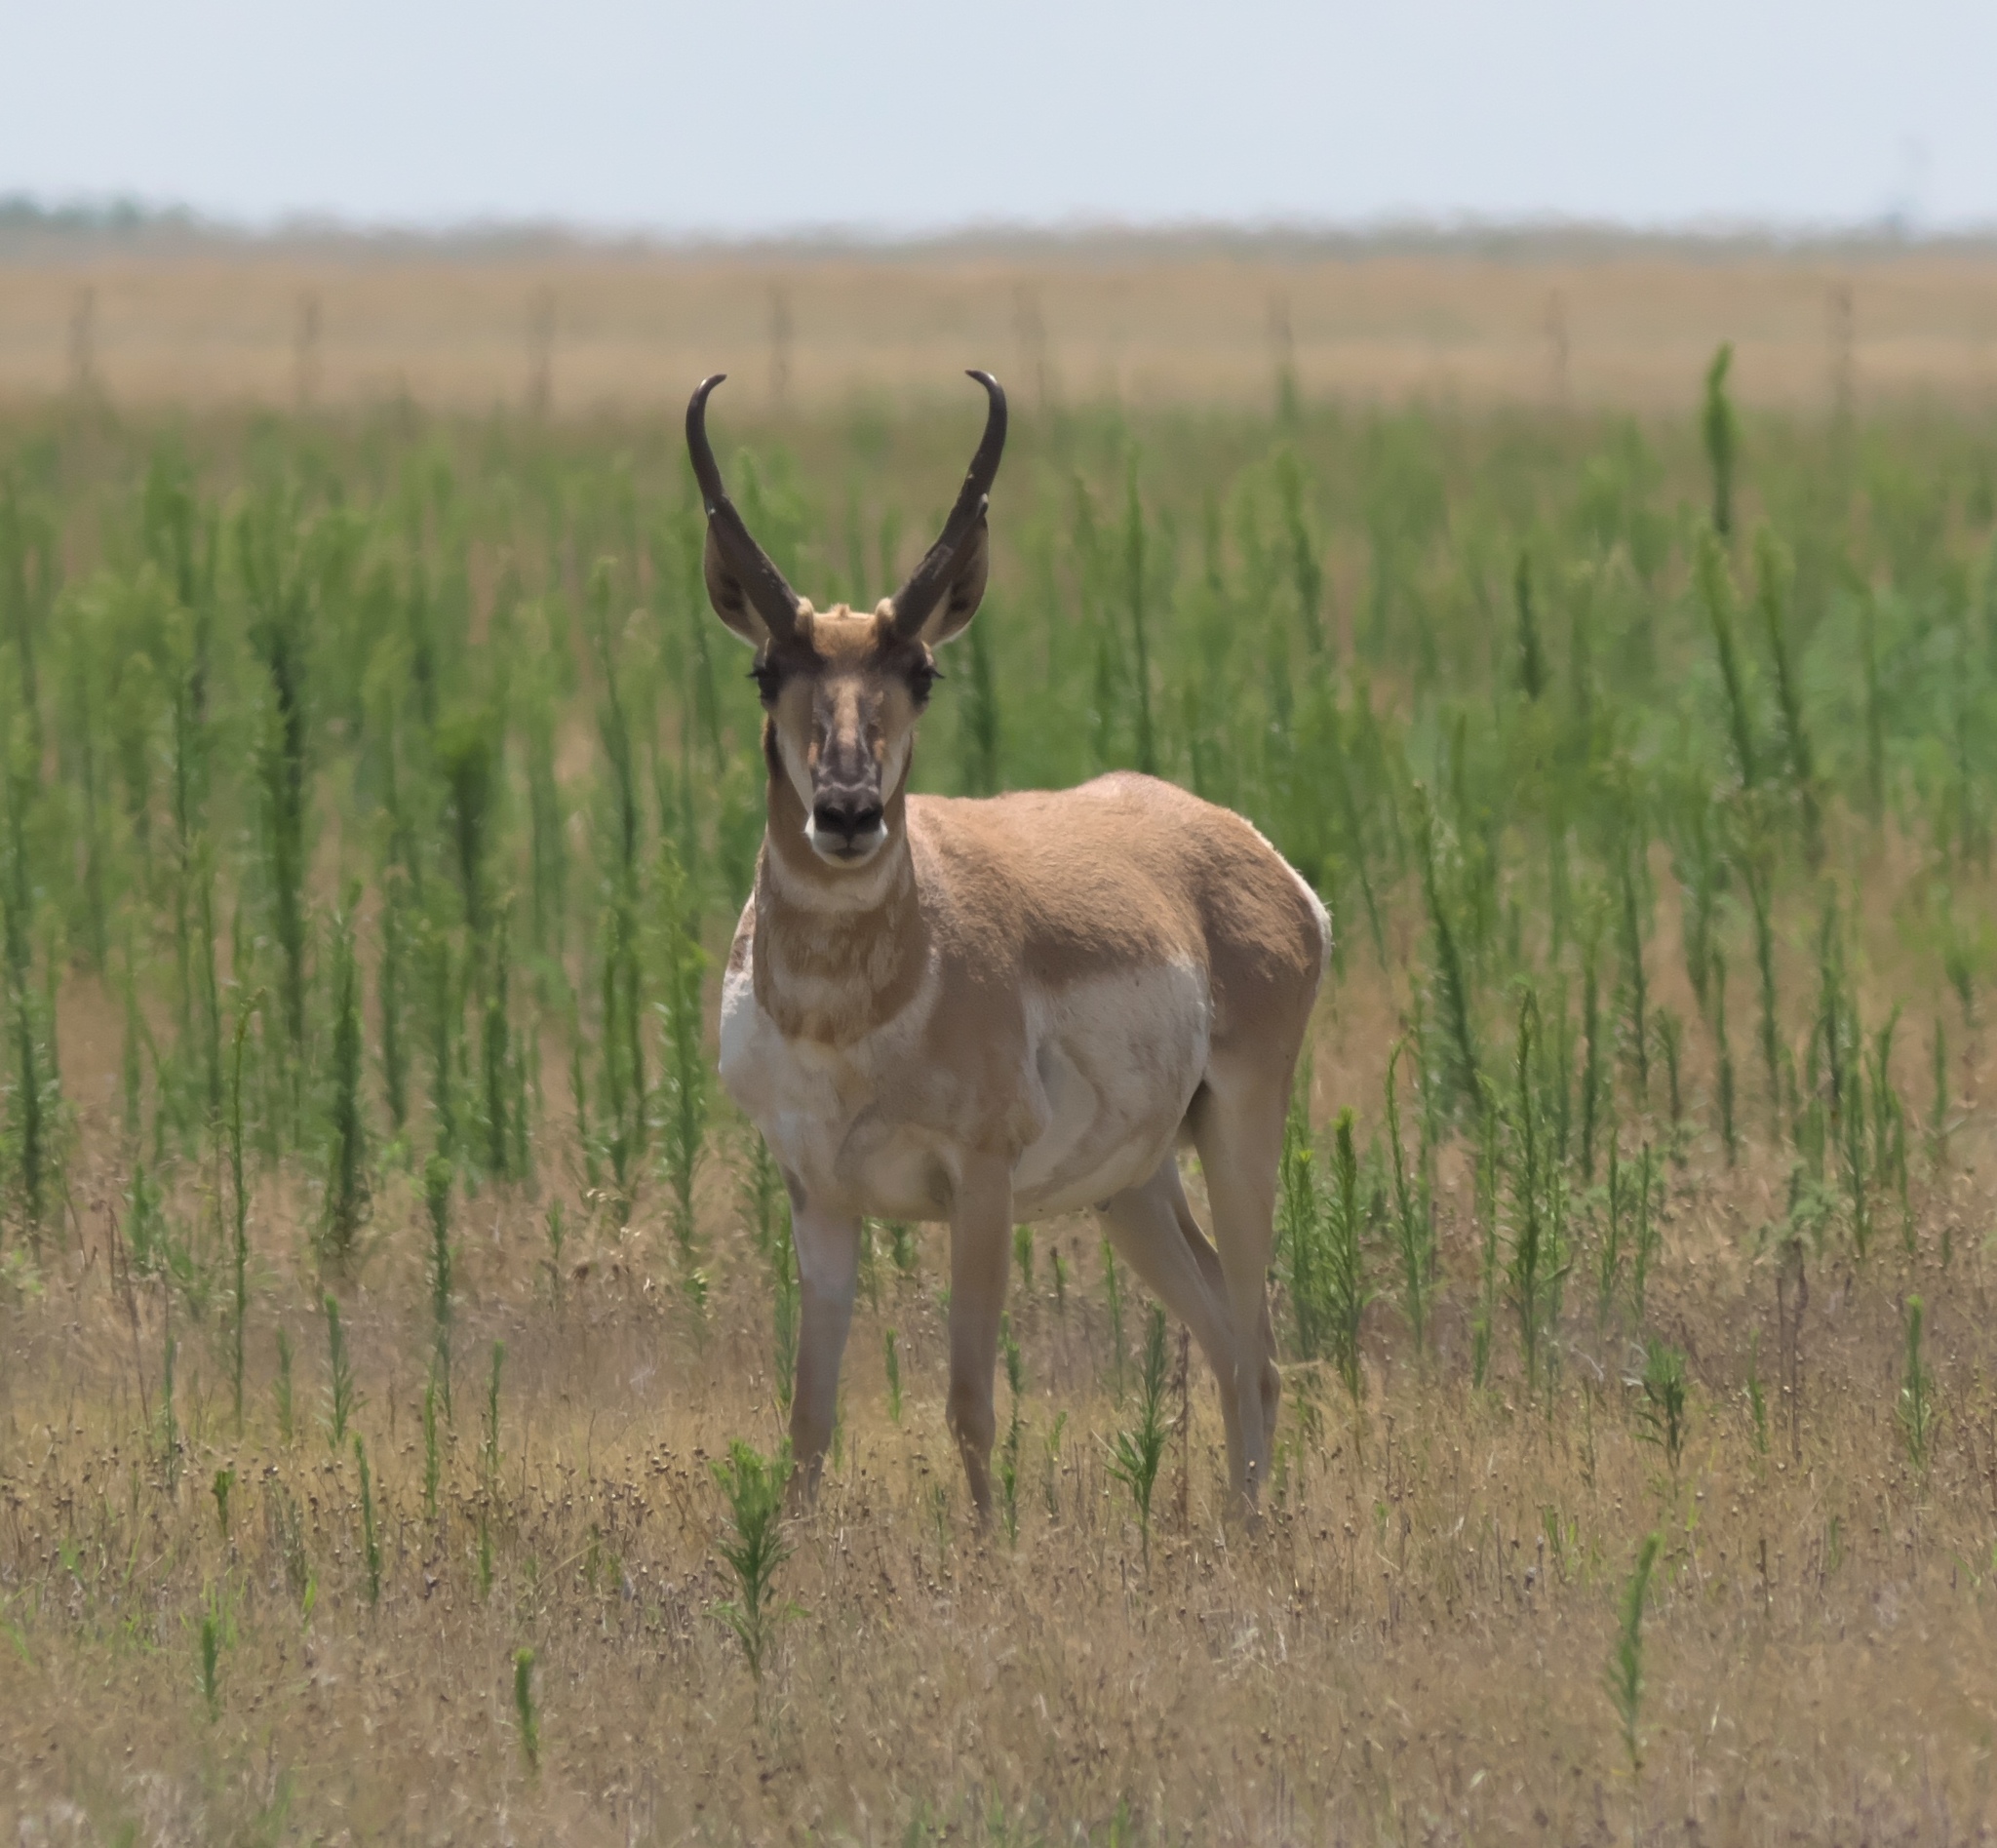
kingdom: Animalia
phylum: Chordata
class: Mammalia
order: Artiodactyla
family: Antilocapridae
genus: Antilocapra
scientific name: Antilocapra americana
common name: Pronghorn
